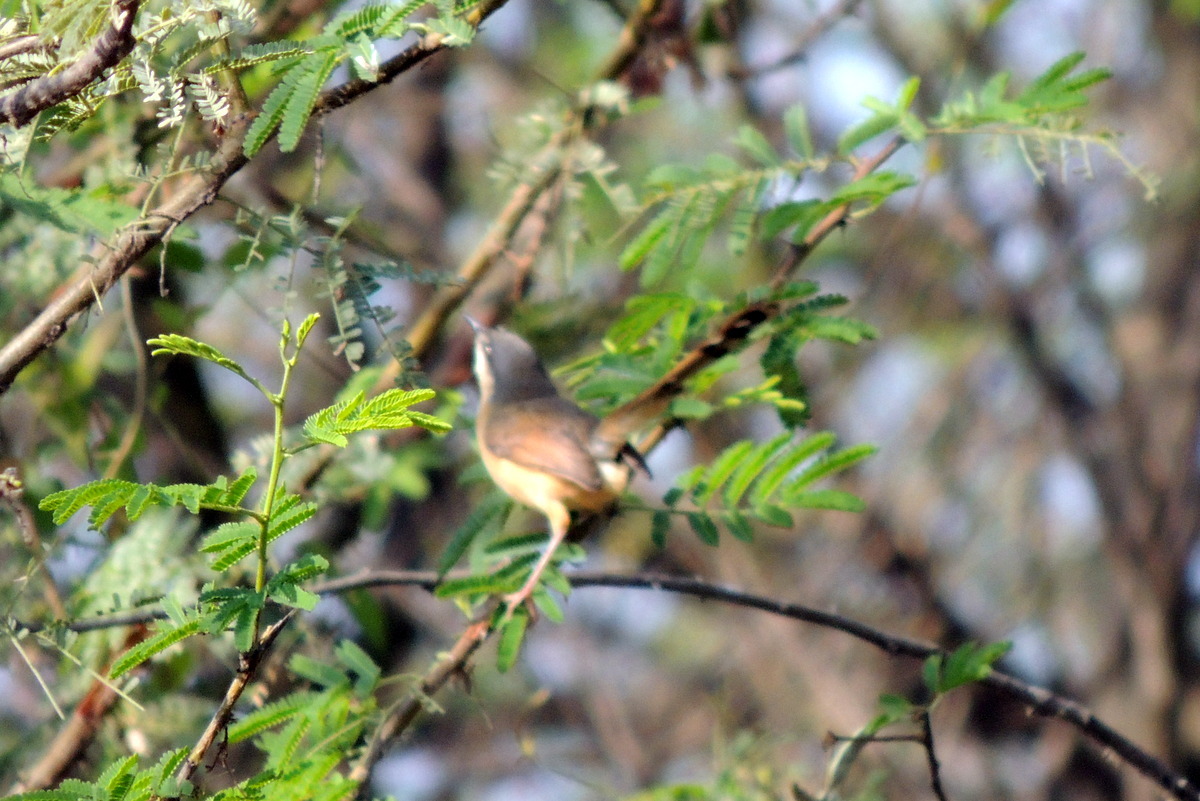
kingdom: Animalia
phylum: Chordata
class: Aves
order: Passeriformes
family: Cisticolidae
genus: Prinia
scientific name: Prinia socialis
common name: Ashy prinia
